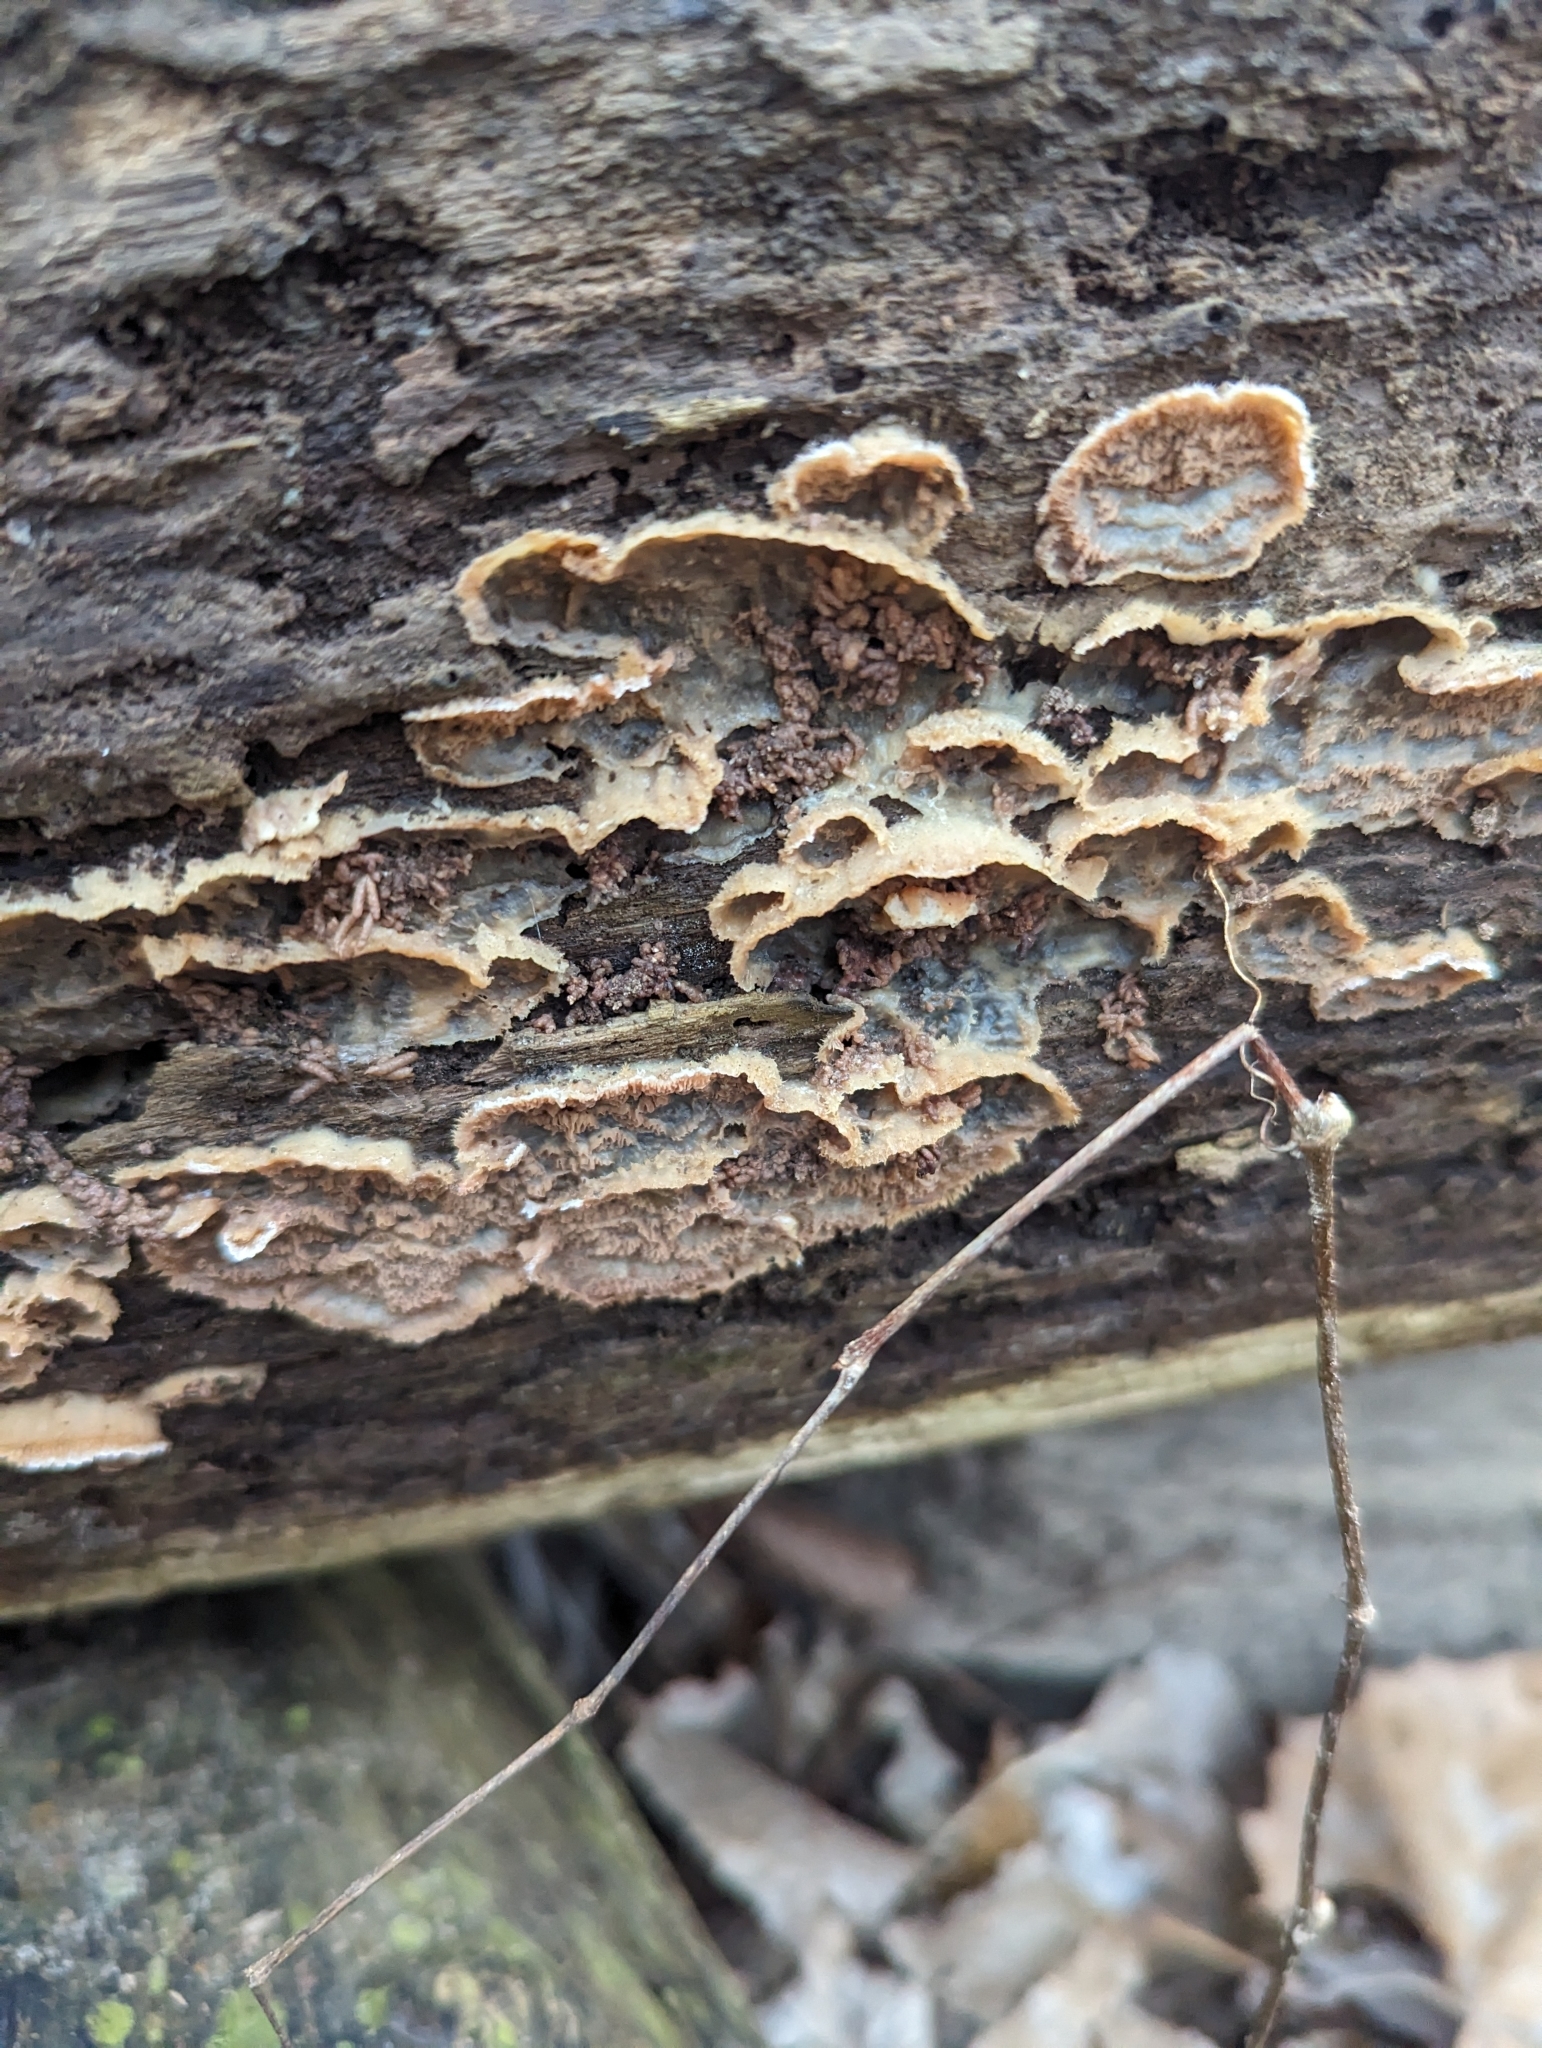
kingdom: Fungi
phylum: Basidiomycota
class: Agaricomycetes
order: Polyporales
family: Meruliaceae
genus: Phlebia
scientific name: Phlebia tremellosa
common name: Jelly rot
